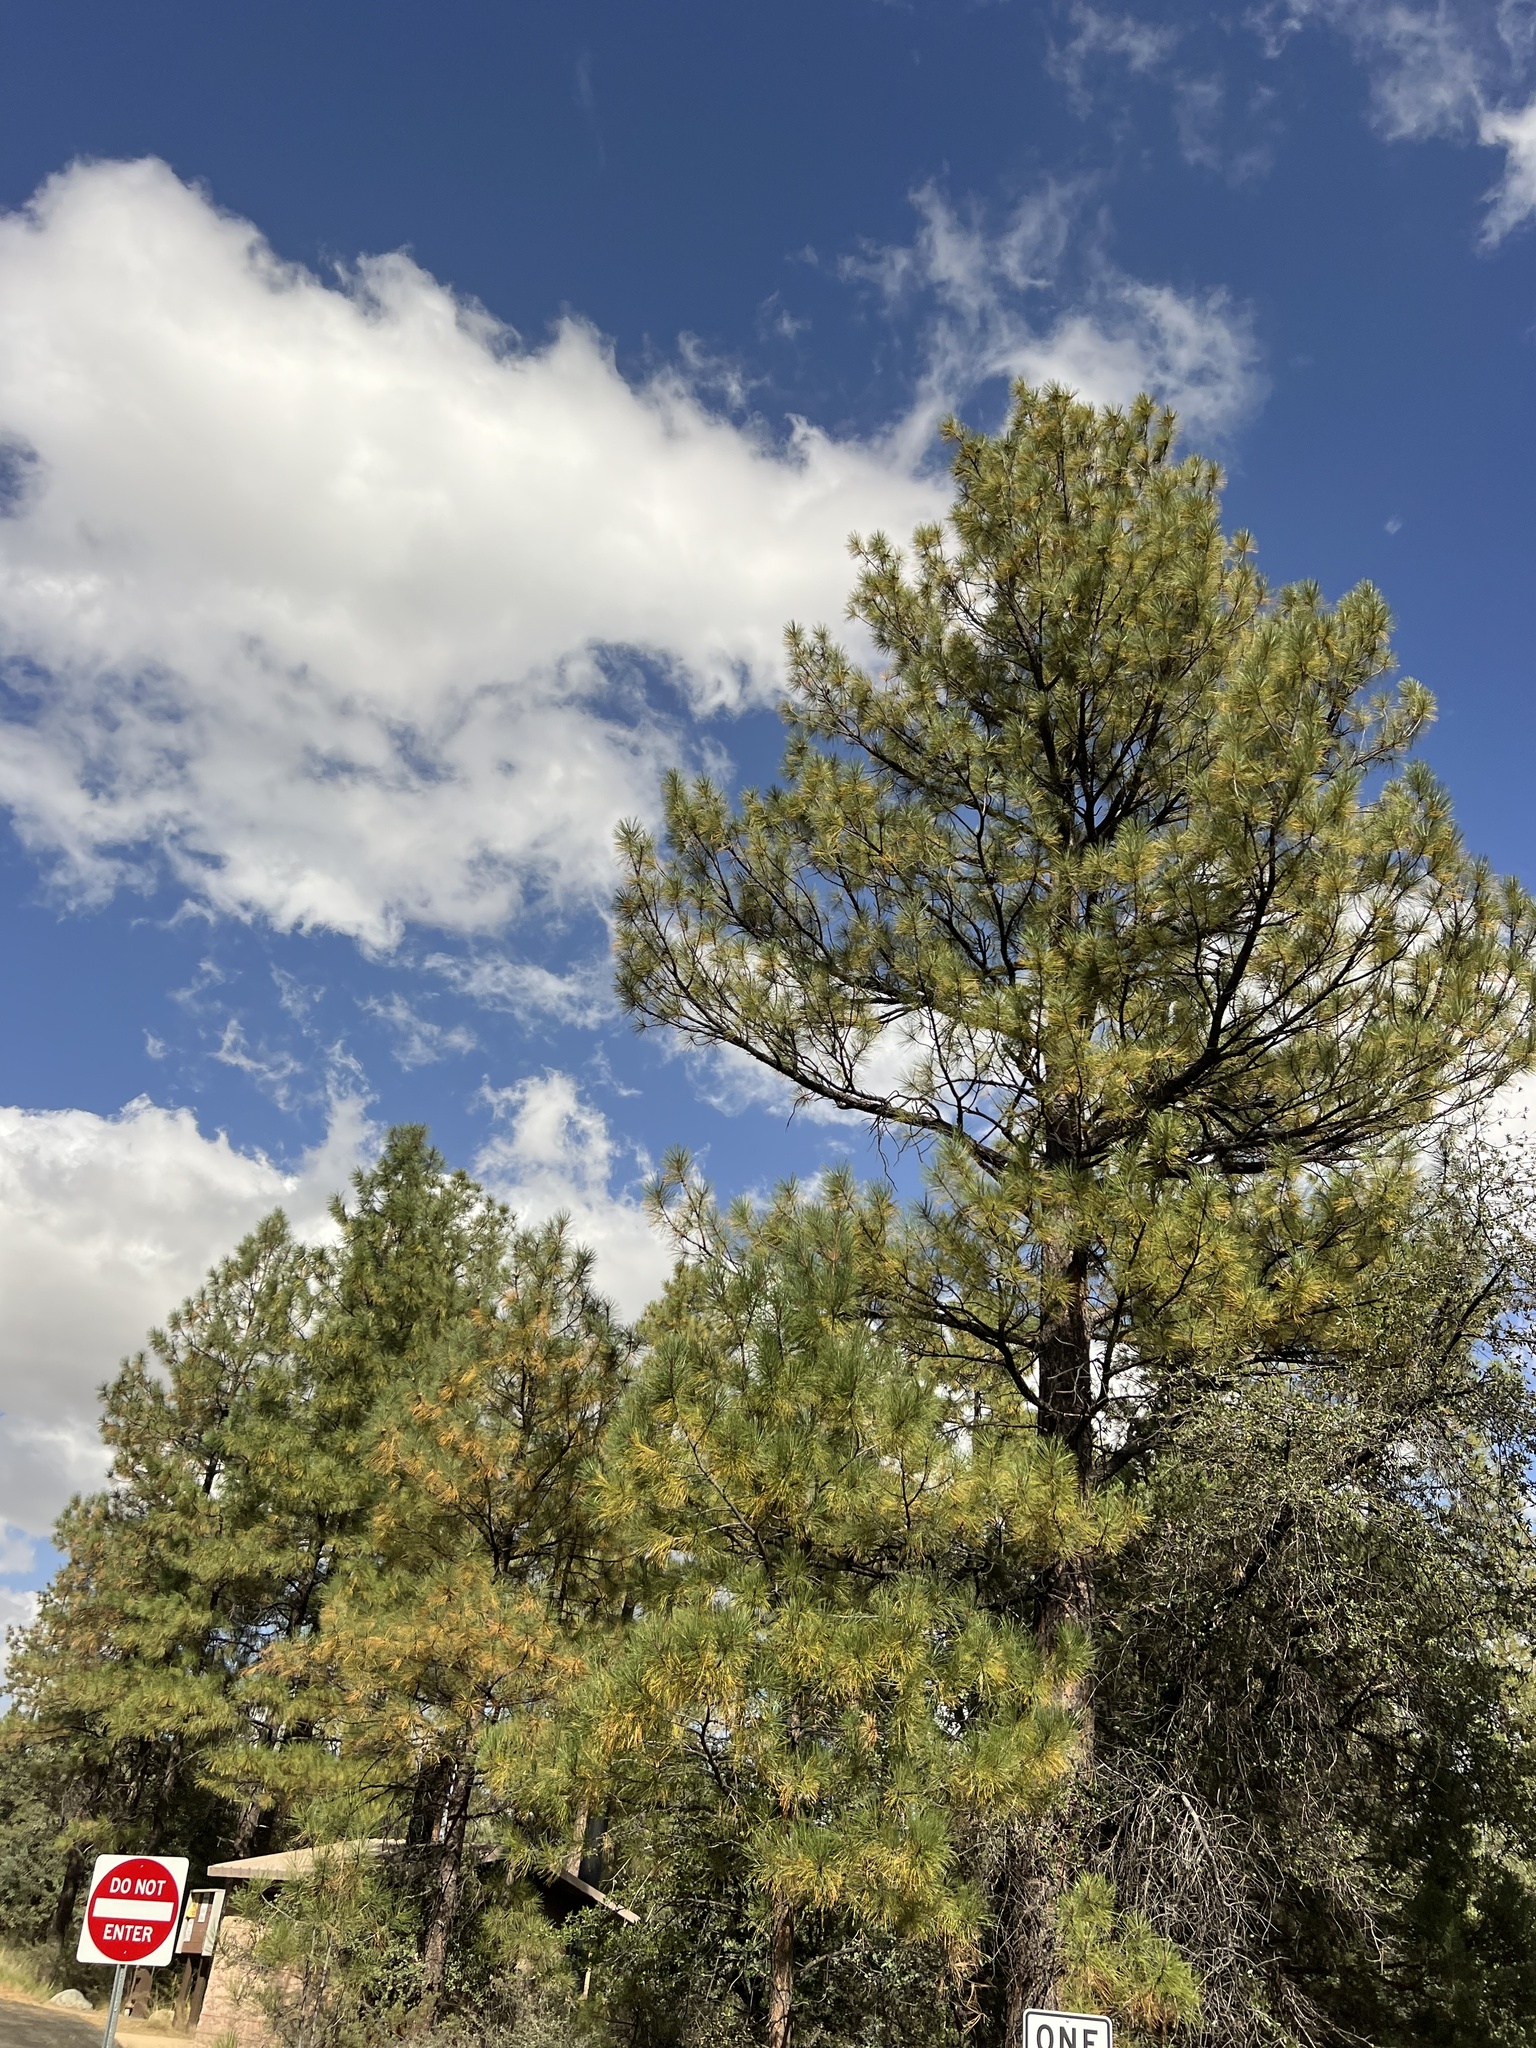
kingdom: Plantae
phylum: Tracheophyta
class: Pinopsida
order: Pinales
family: Pinaceae
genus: Pinus
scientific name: Pinus ponderosa
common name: Western yellow-pine
